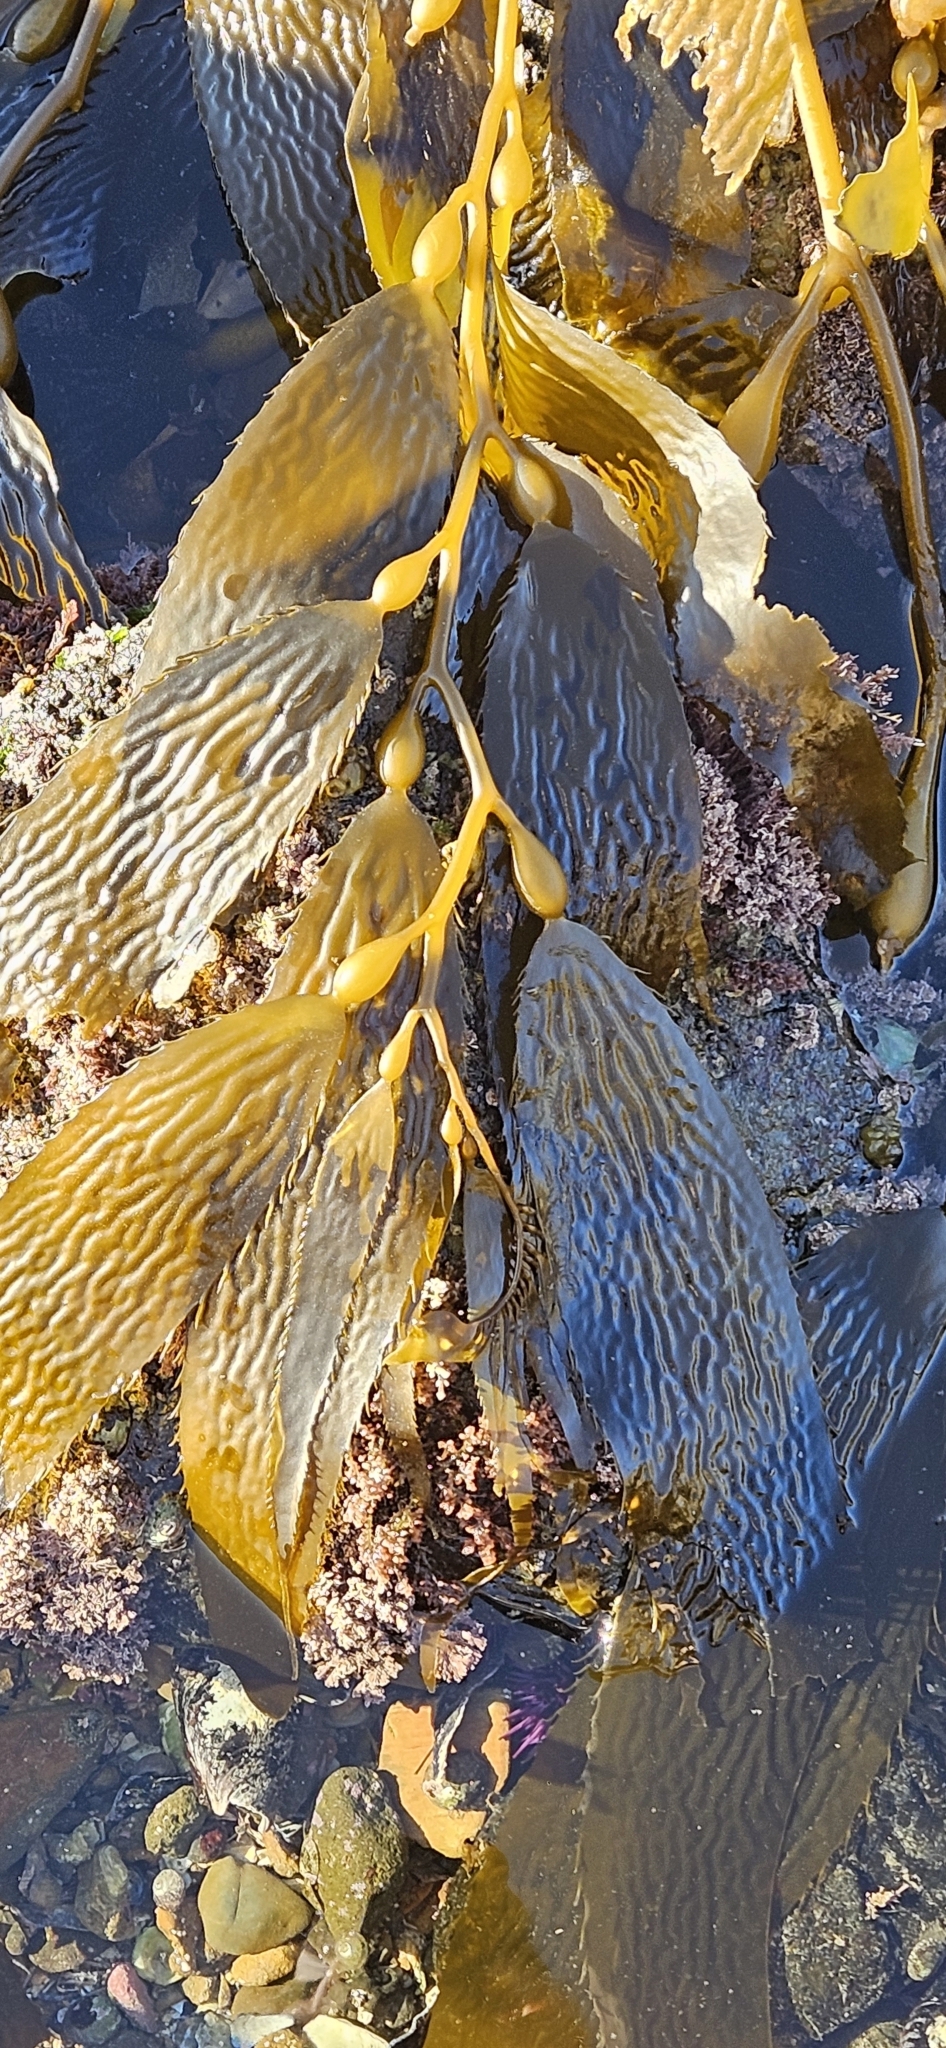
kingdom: Chromista
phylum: Ochrophyta
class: Phaeophyceae
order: Laminariales
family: Laminariaceae
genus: Macrocystis
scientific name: Macrocystis pyrifera
